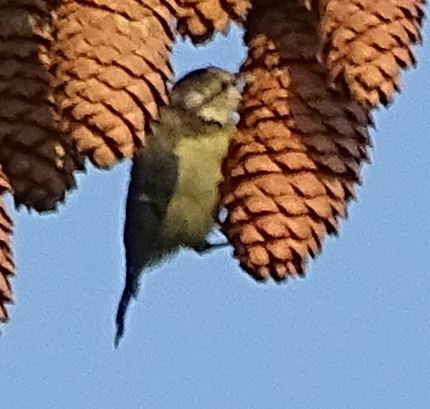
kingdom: Animalia
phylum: Chordata
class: Aves
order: Passeriformes
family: Paridae
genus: Cyanistes
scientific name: Cyanistes caeruleus
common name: Eurasian blue tit
